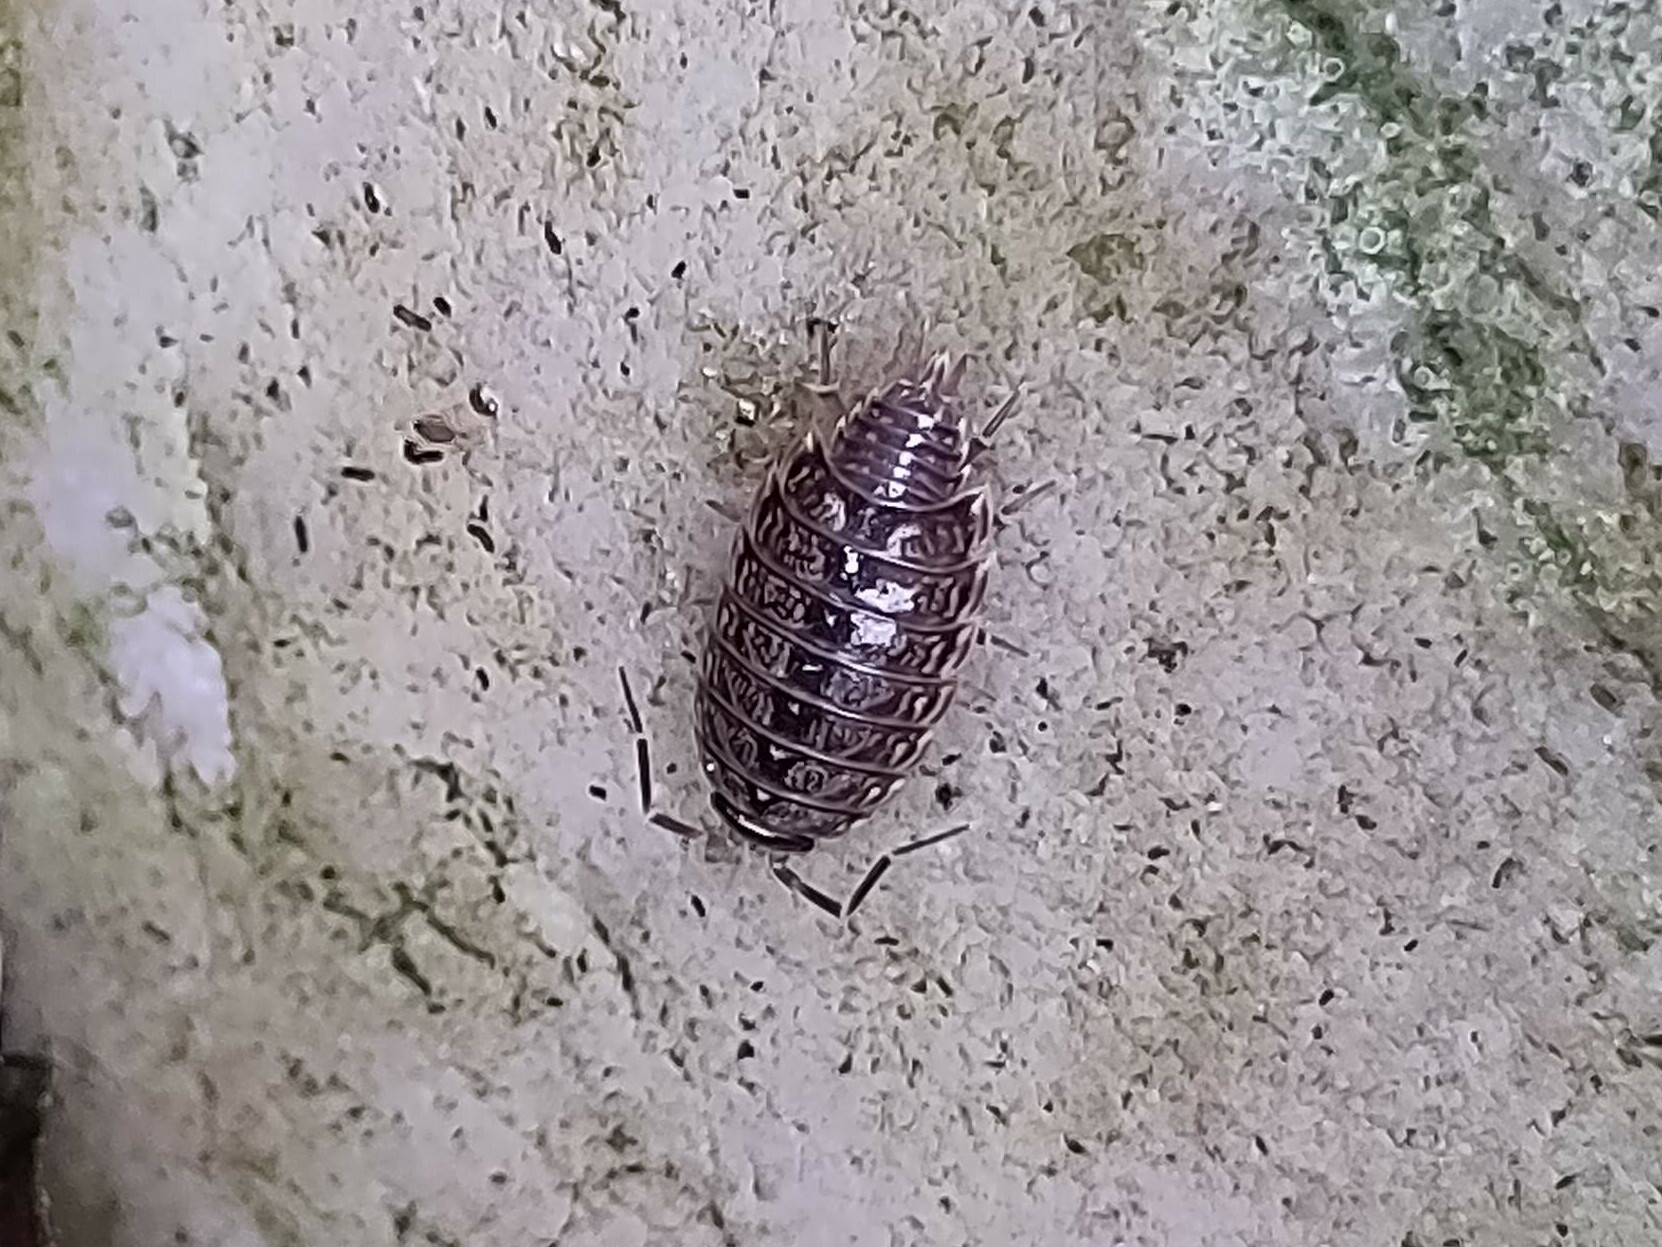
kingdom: Animalia
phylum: Arthropoda
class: Malacostraca
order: Isopoda
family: Philosciidae
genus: Philoscia
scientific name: Philoscia muscorum
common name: Common striped woodlouse
